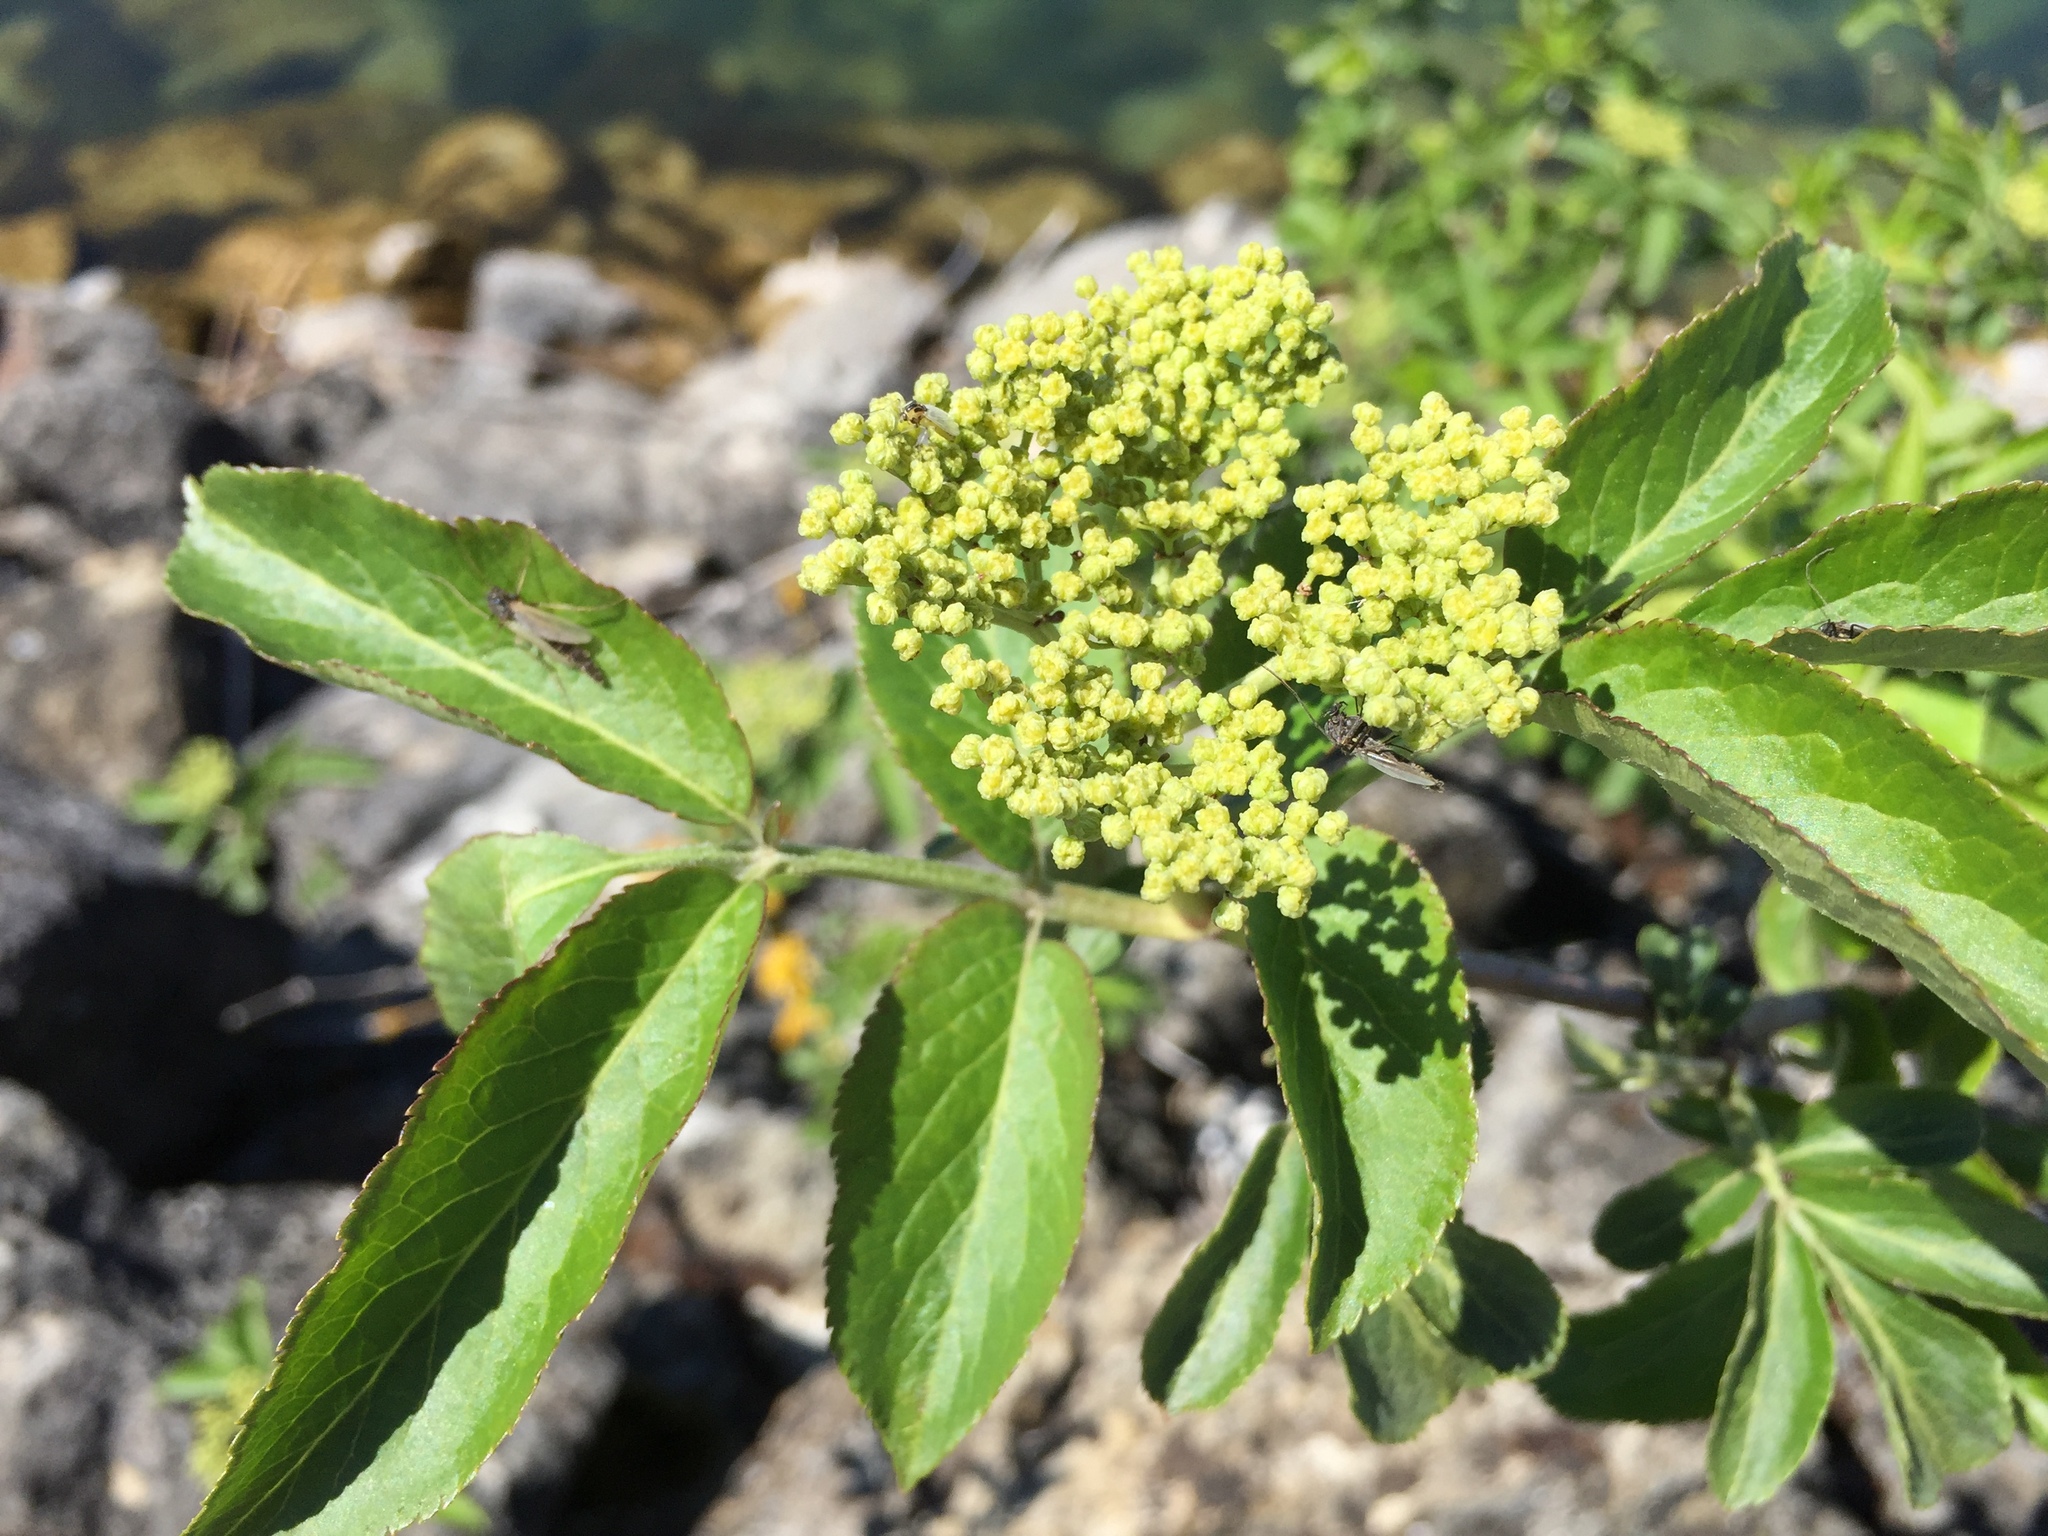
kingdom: Plantae
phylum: Tracheophyta
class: Magnoliopsida
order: Dipsacales
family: Viburnaceae
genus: Sambucus
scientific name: Sambucus racemosa
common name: Red-berried elder
